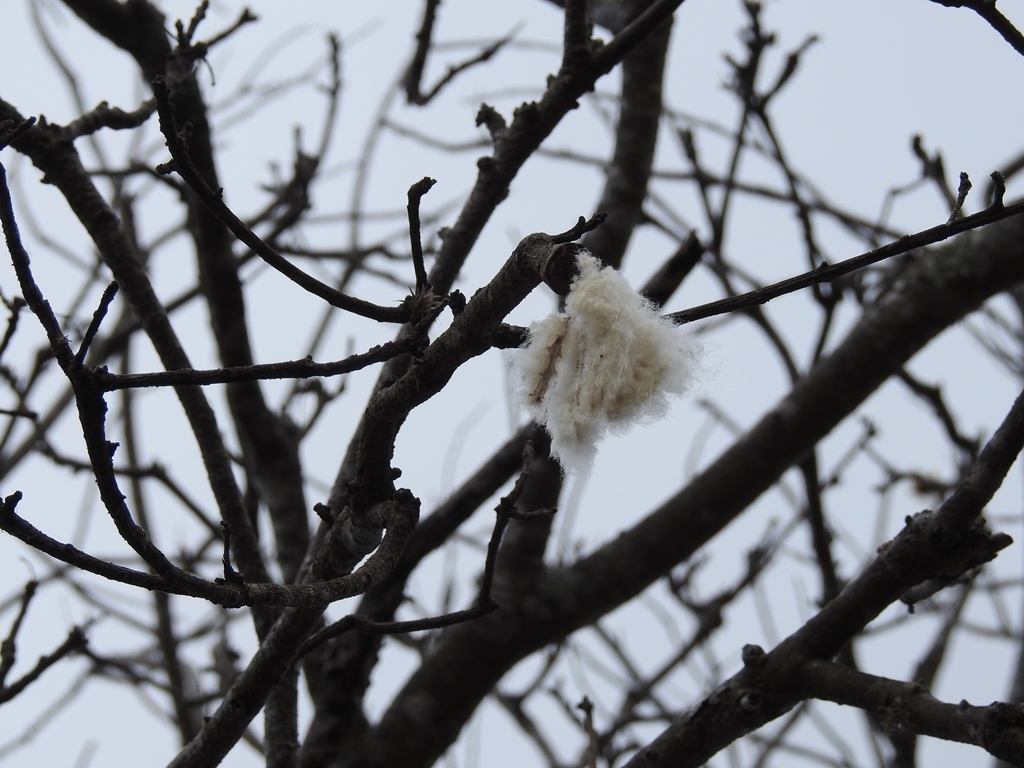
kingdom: Plantae
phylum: Tracheophyta
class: Magnoliopsida
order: Malvales
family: Malvaceae
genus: Ceiba
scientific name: Ceiba aesculifolia
